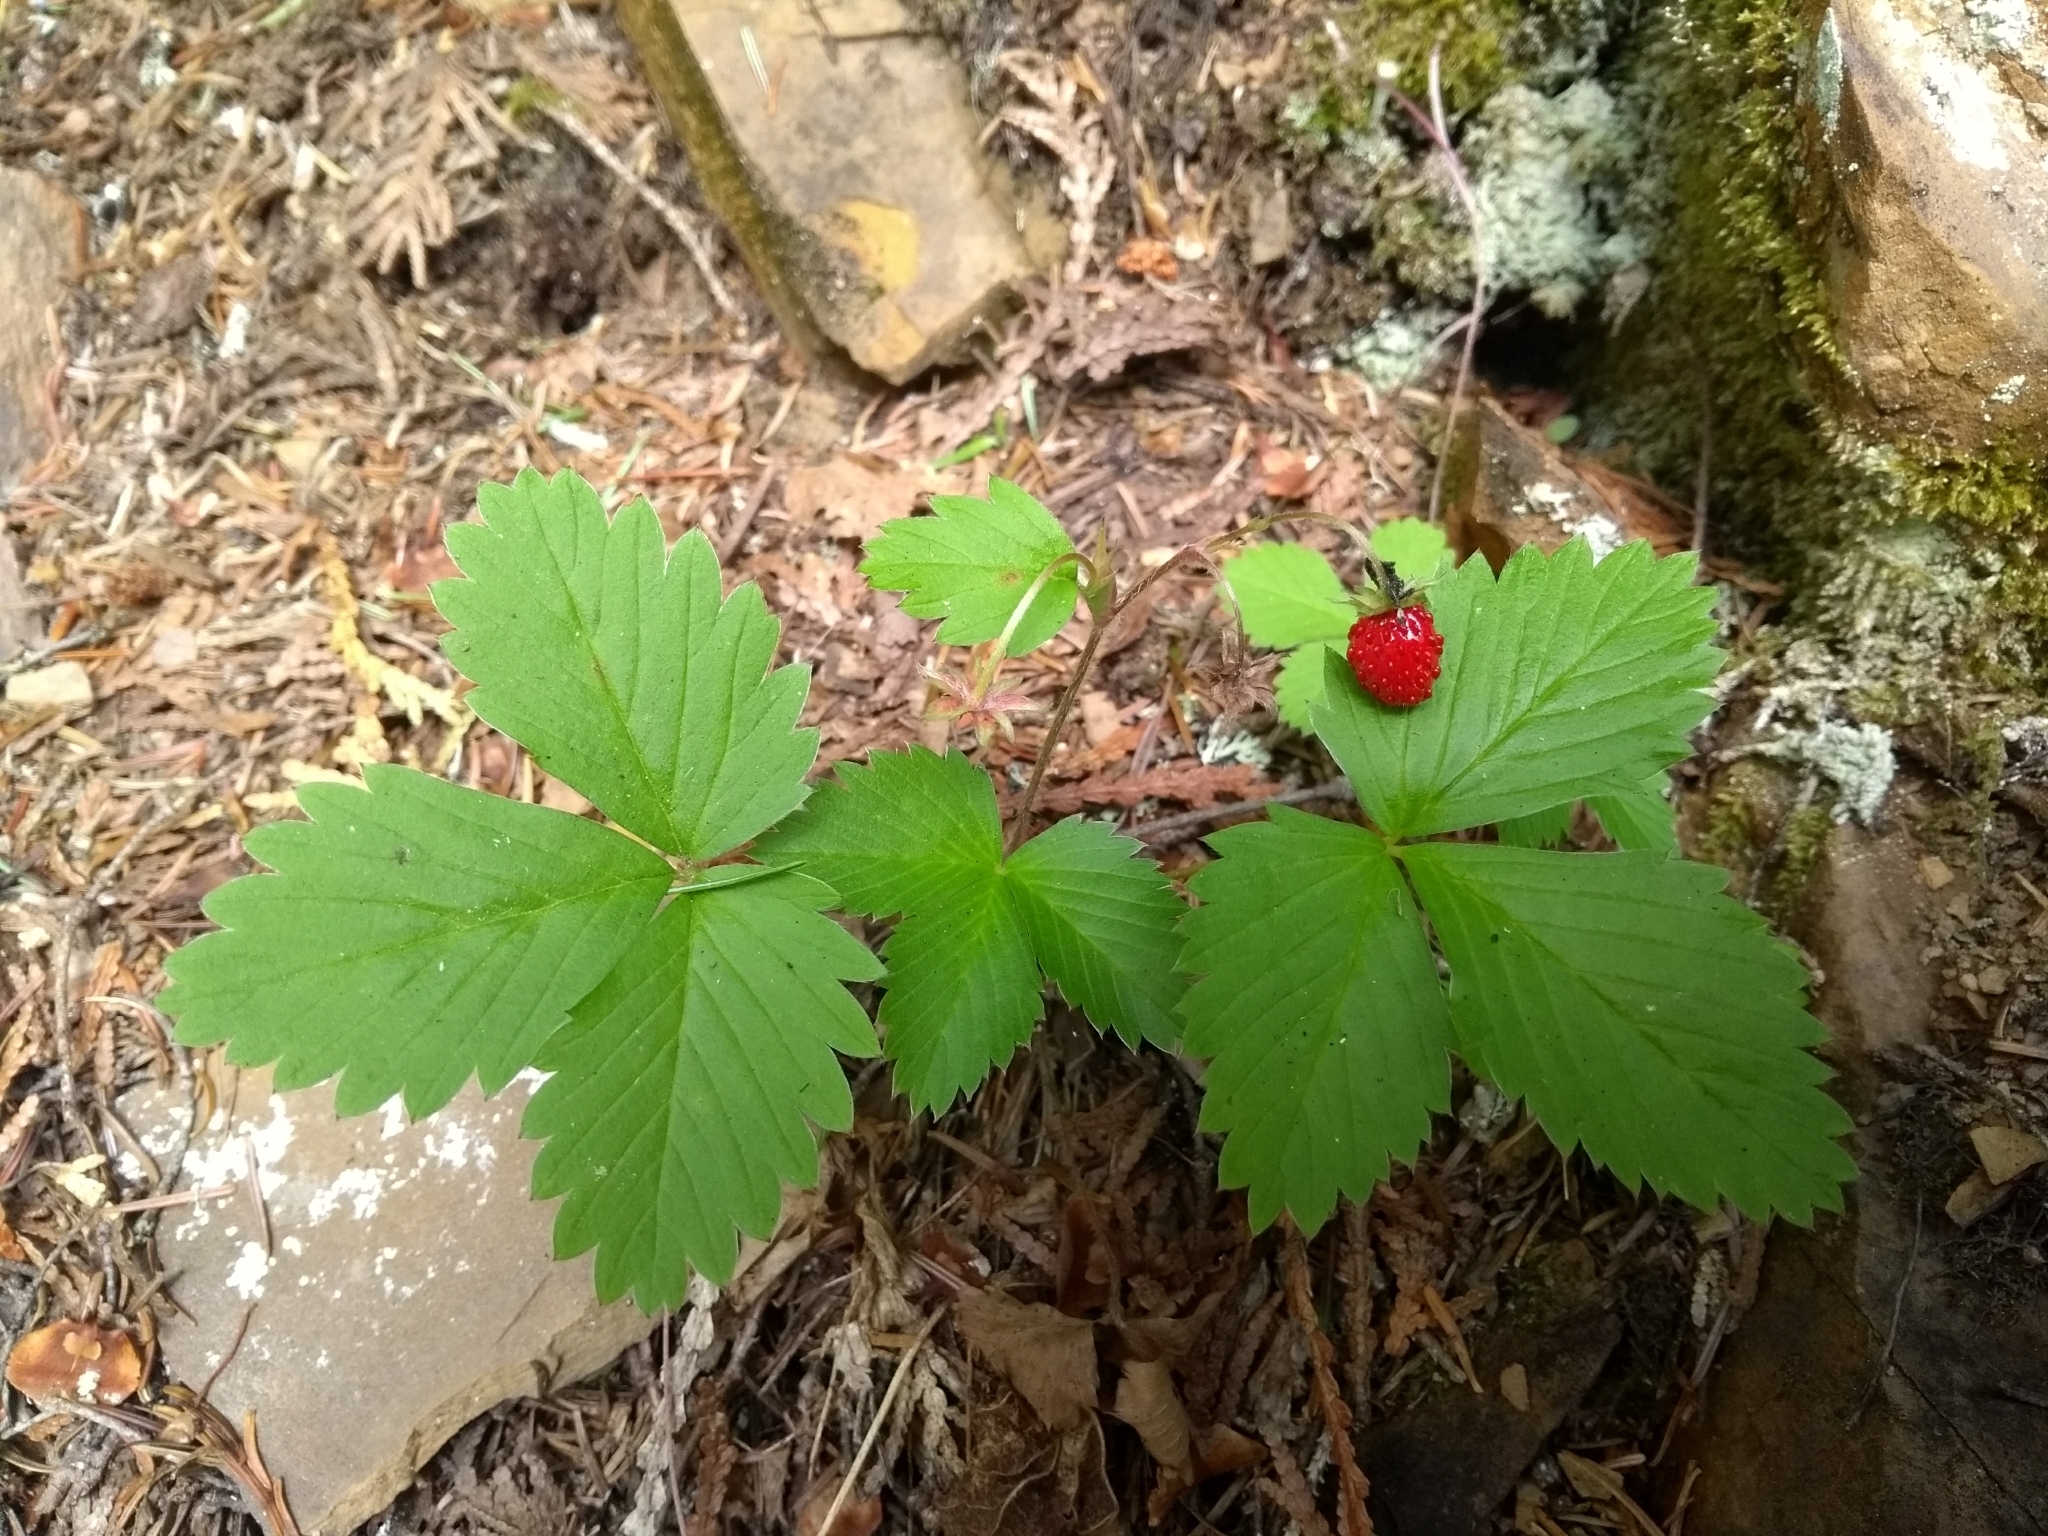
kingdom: Plantae
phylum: Tracheophyta
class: Magnoliopsida
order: Rosales
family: Rosaceae
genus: Fragaria
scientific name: Fragaria vesca
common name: Wild strawberry
